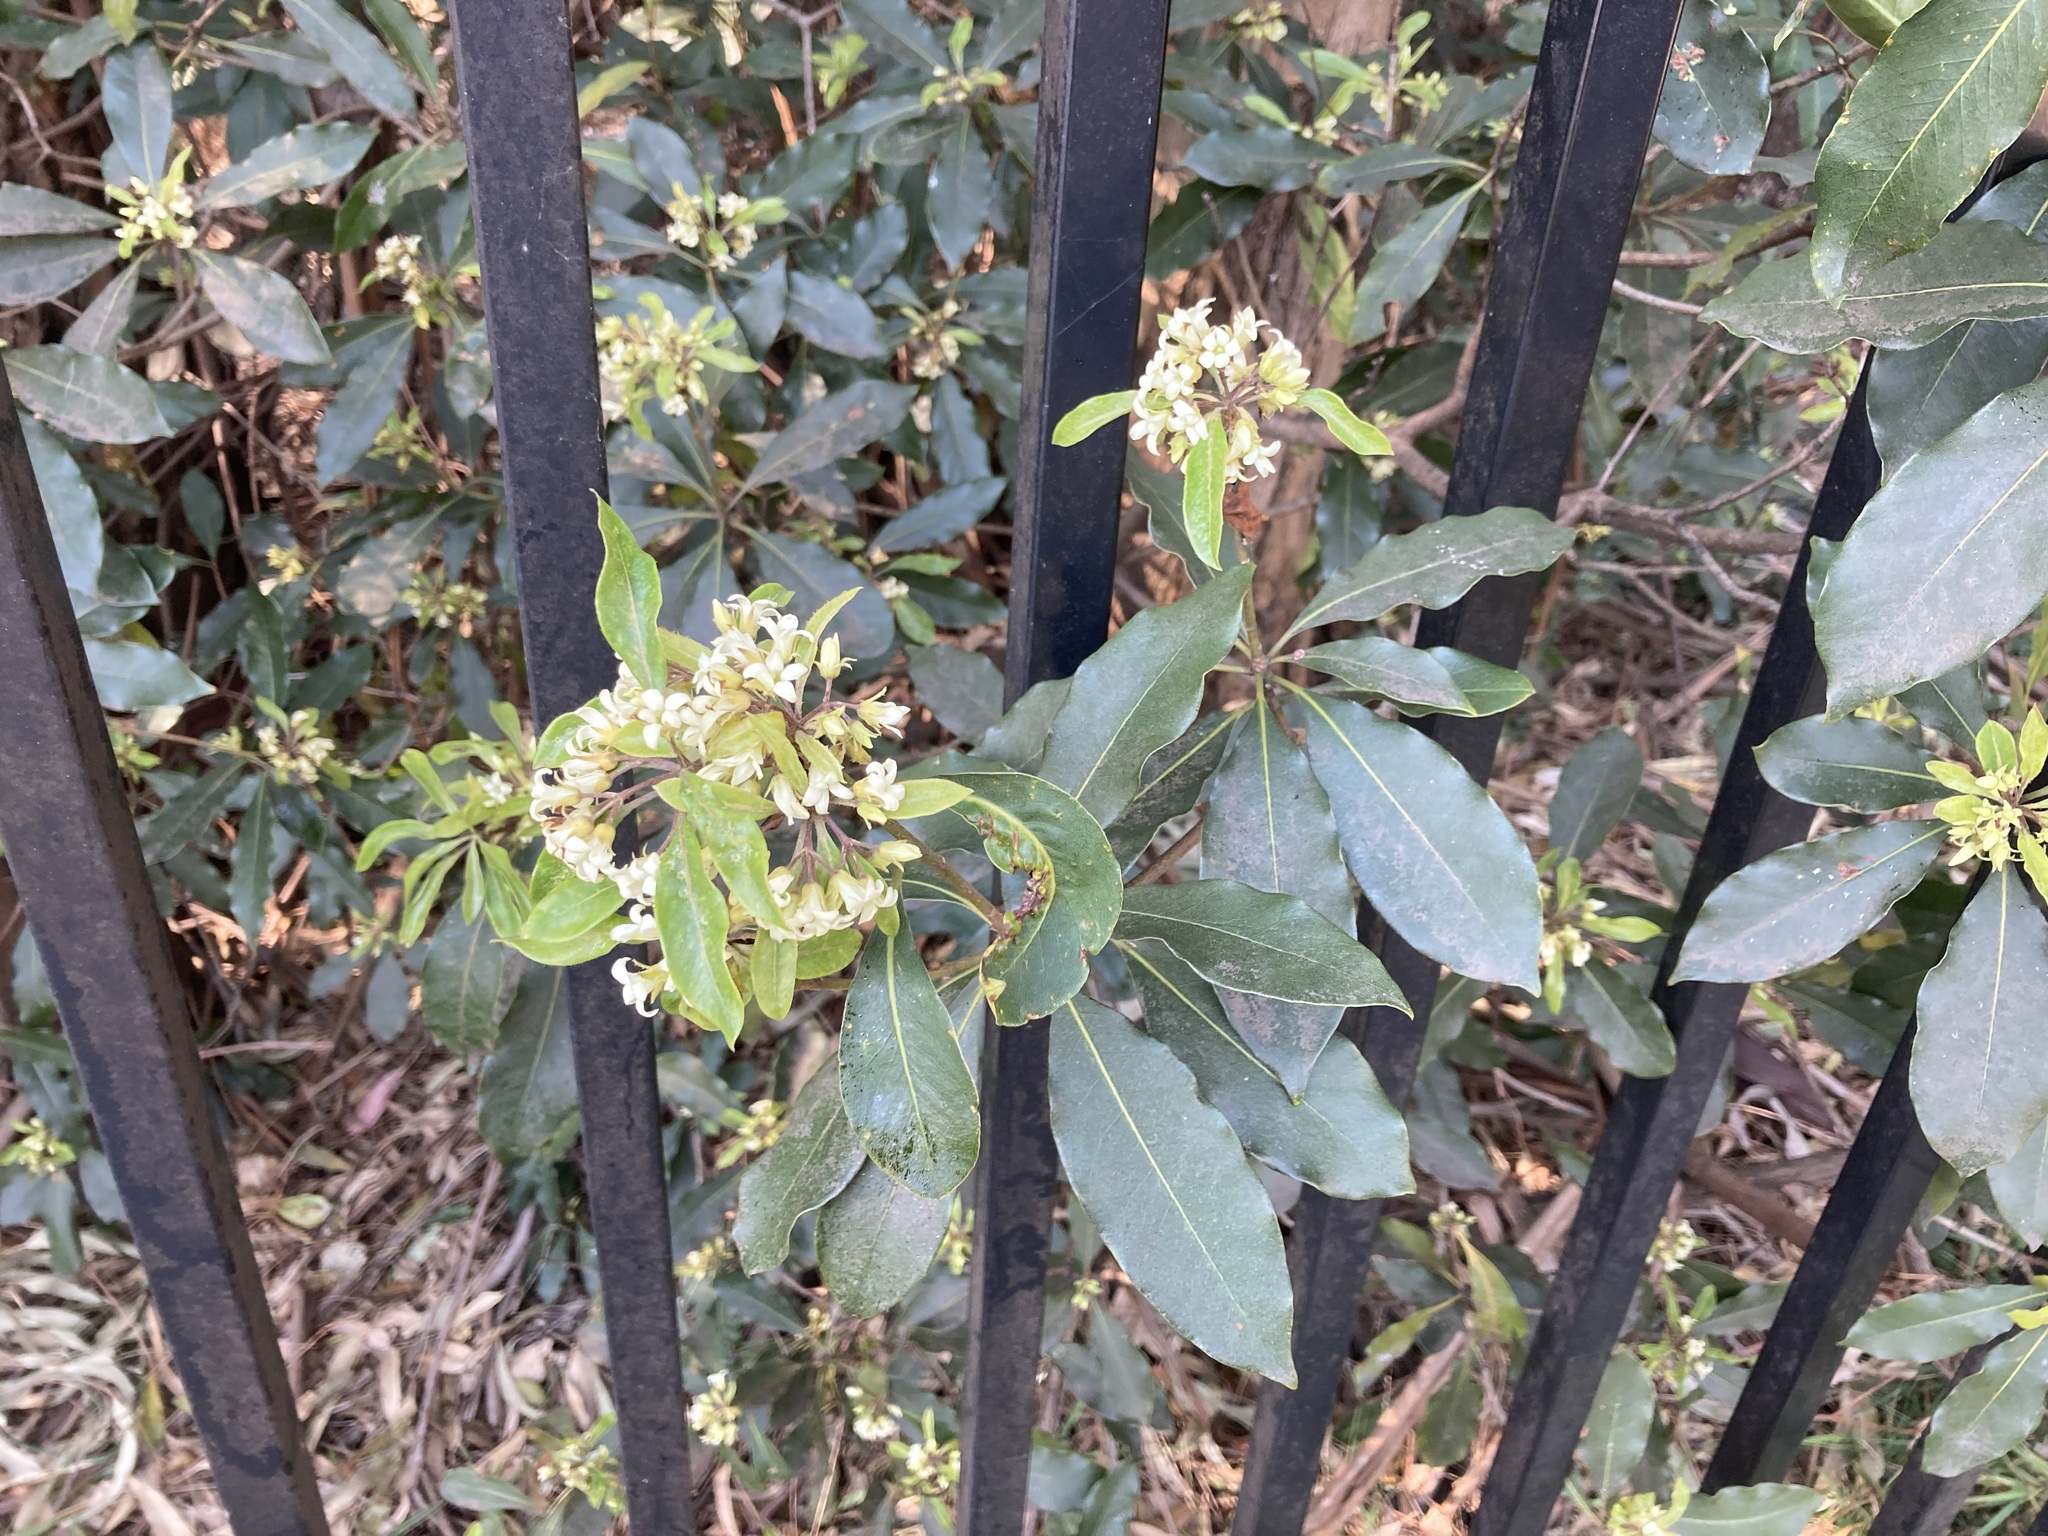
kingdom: Plantae
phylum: Tracheophyta
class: Magnoliopsida
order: Apiales
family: Pittosporaceae
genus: Pittosporum
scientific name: Pittosporum undulatum
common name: Australian cheesewood
